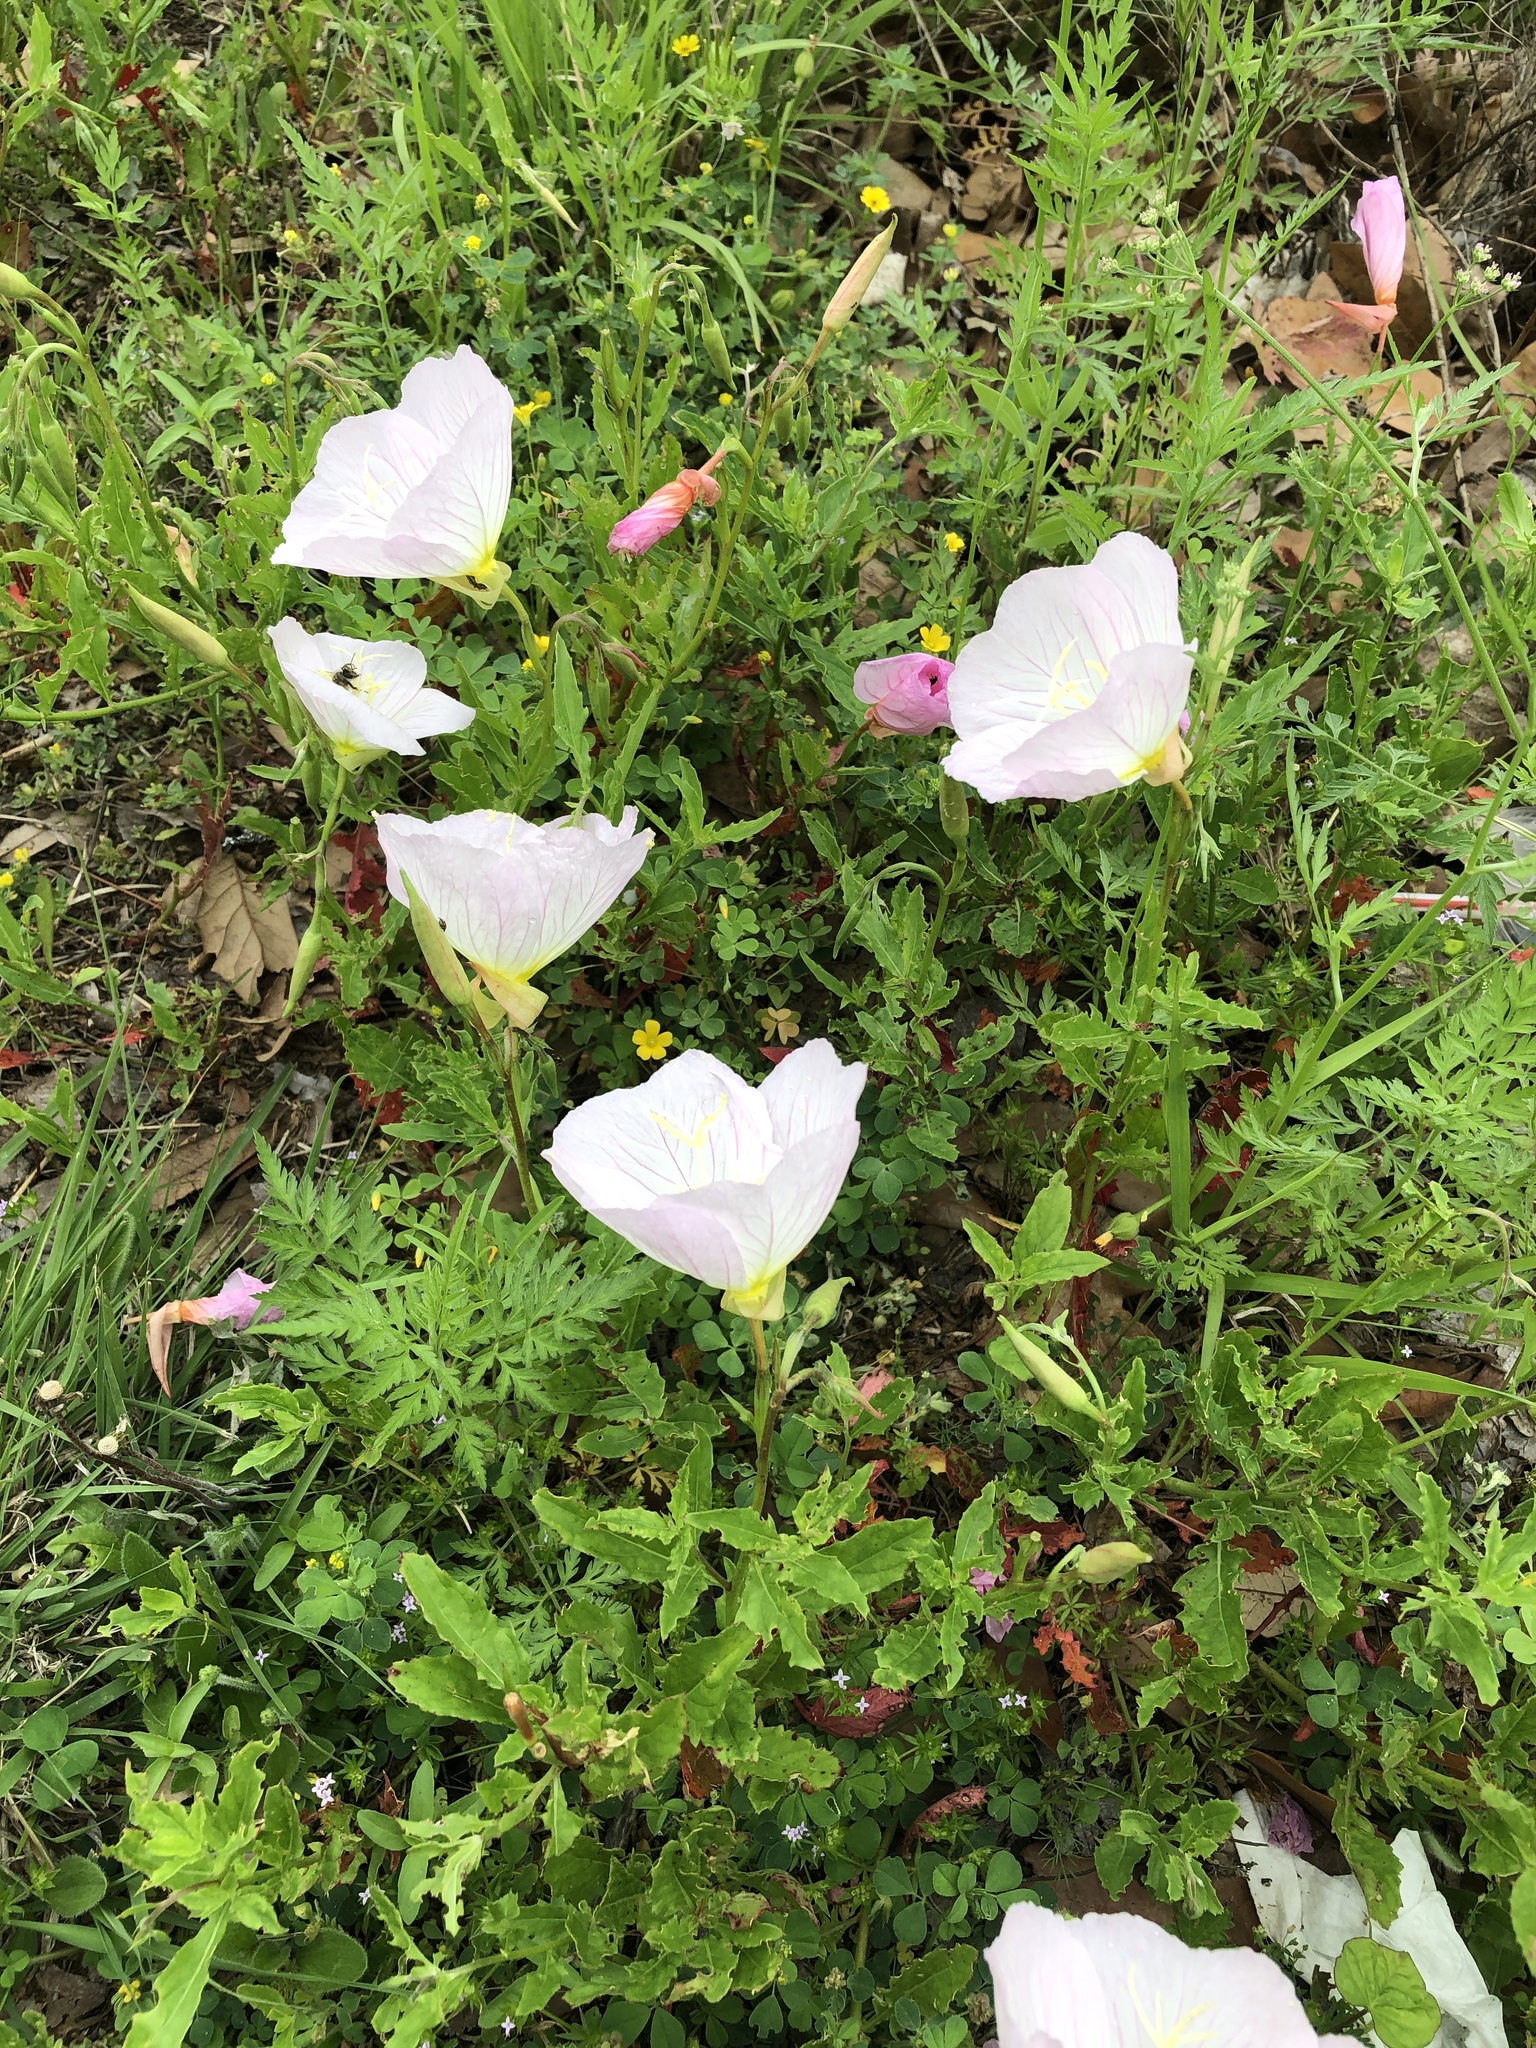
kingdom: Plantae
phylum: Tracheophyta
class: Magnoliopsida
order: Myrtales
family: Onagraceae
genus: Oenothera
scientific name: Oenothera speciosa
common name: White evening-primrose
